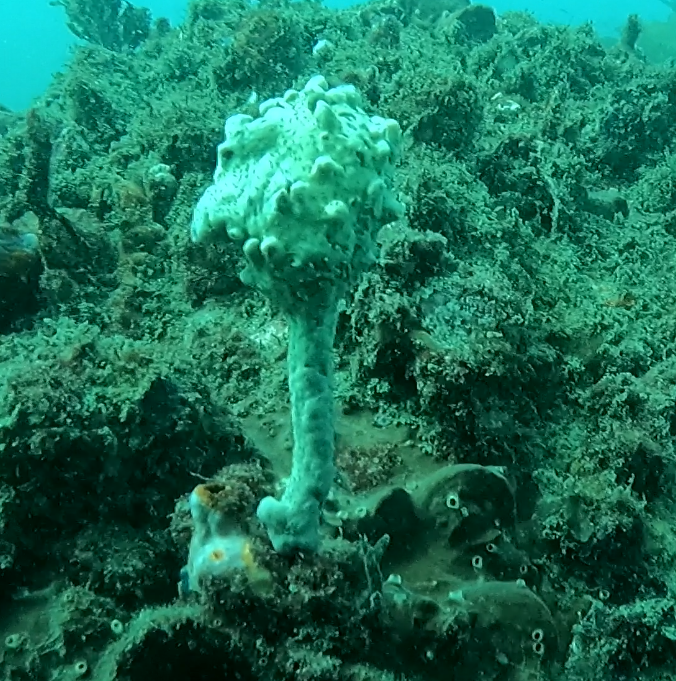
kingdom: Animalia
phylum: Chordata
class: Ascidiacea
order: Stolidobranchia
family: Pyuridae
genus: Pyura
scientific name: Pyura spinifera
